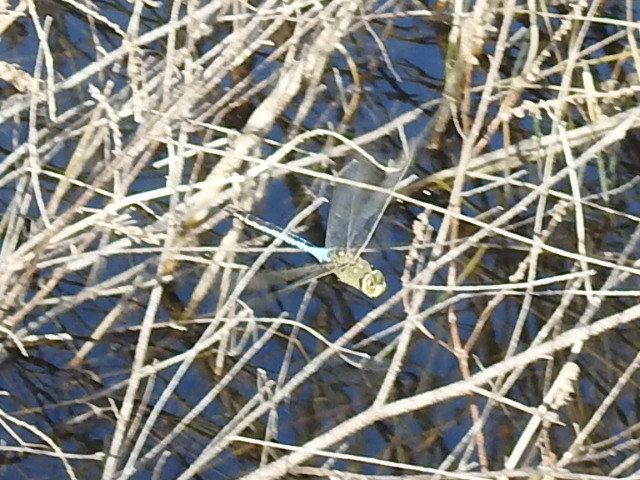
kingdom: Animalia
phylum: Arthropoda
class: Insecta
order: Odonata
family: Aeshnidae
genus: Anax
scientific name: Anax junius
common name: Common green darner
